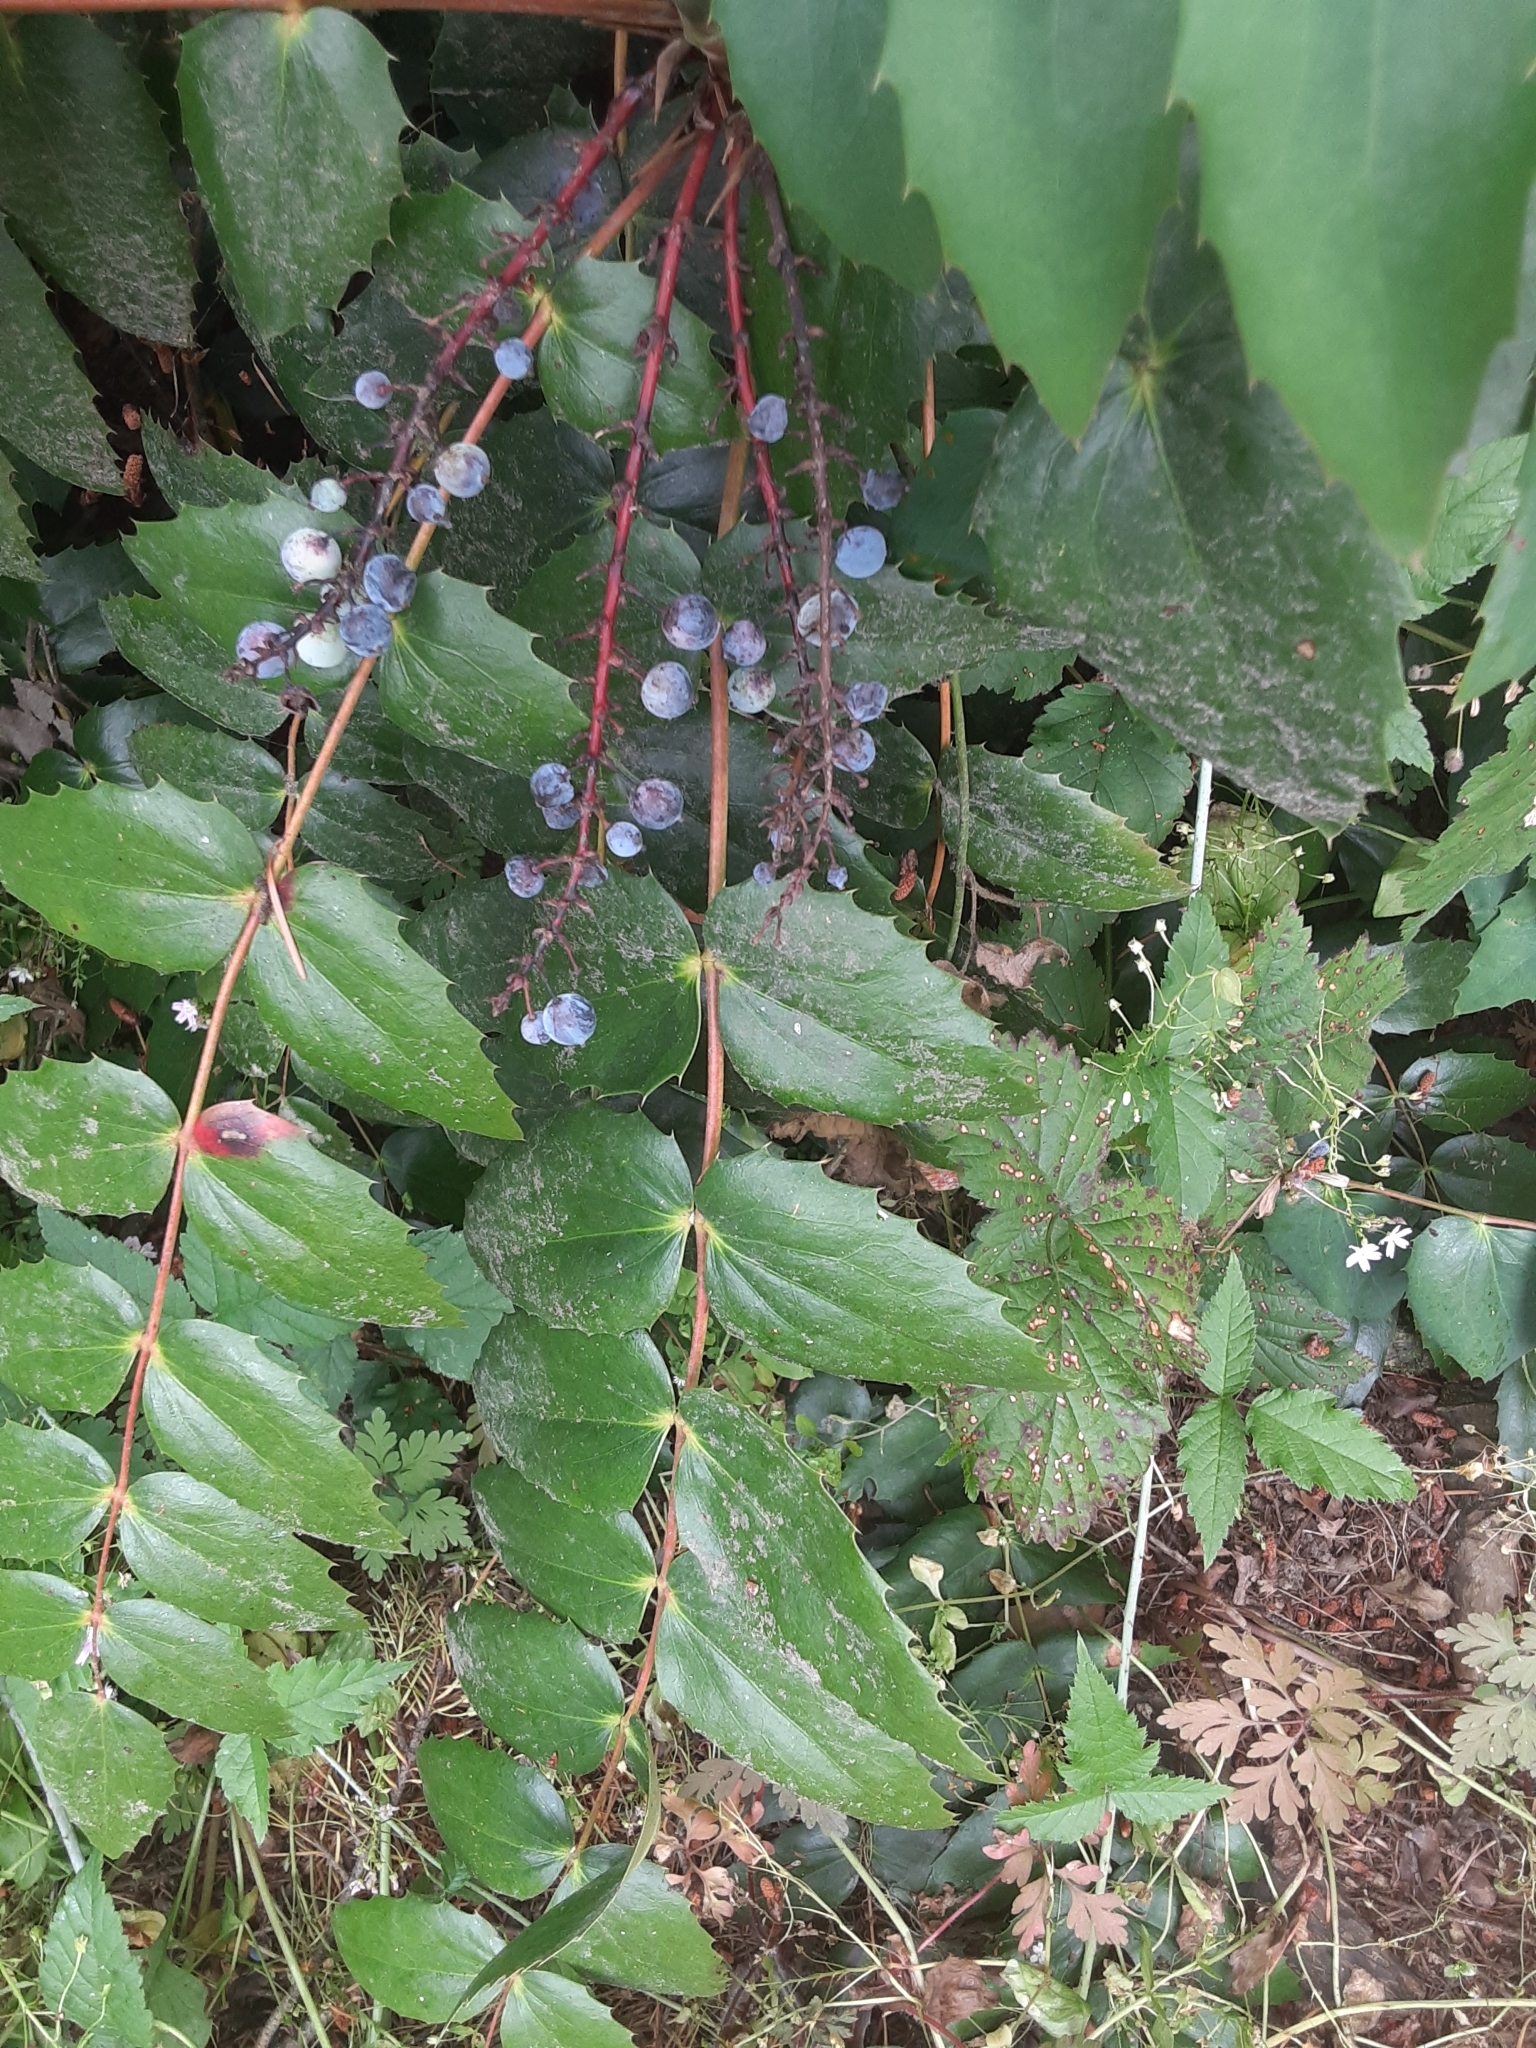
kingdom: Plantae
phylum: Tracheophyta
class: Magnoliopsida
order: Ranunculales
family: Berberidaceae
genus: Mahonia
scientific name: Mahonia nervosa
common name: Cascade oregon-grape
